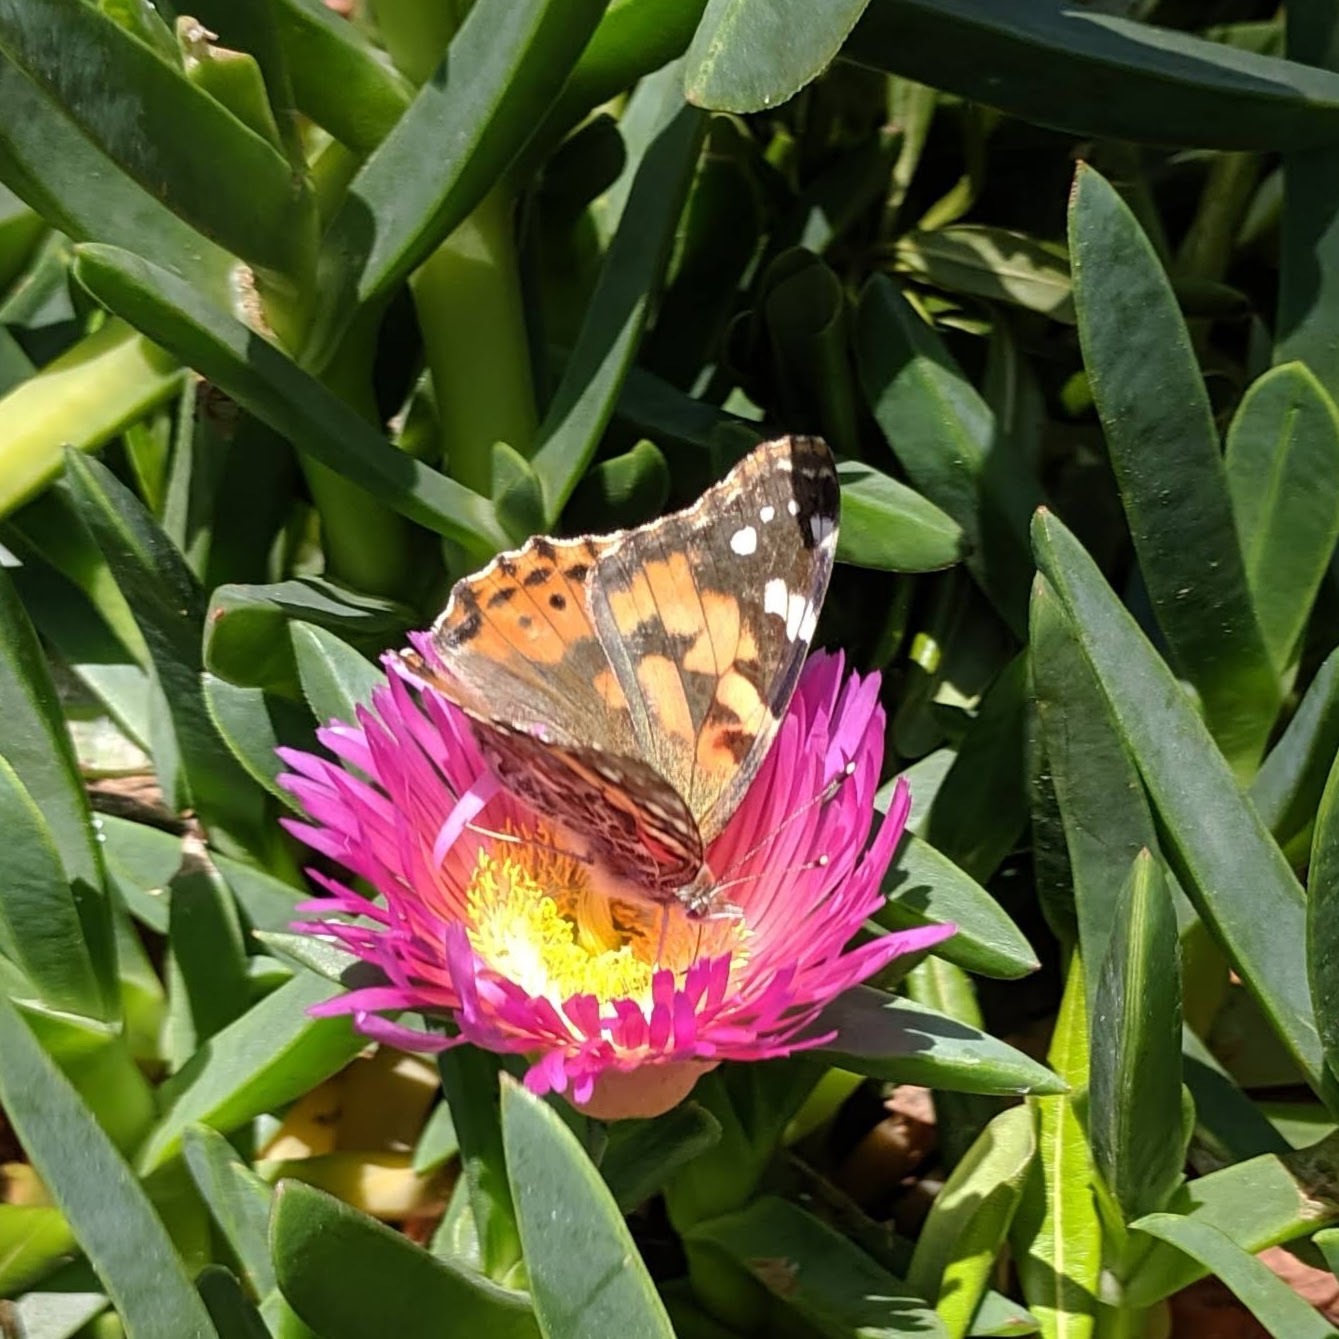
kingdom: Animalia
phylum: Arthropoda
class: Insecta
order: Lepidoptera
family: Nymphalidae
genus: Vanessa
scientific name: Vanessa cardui
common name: Painted lady
